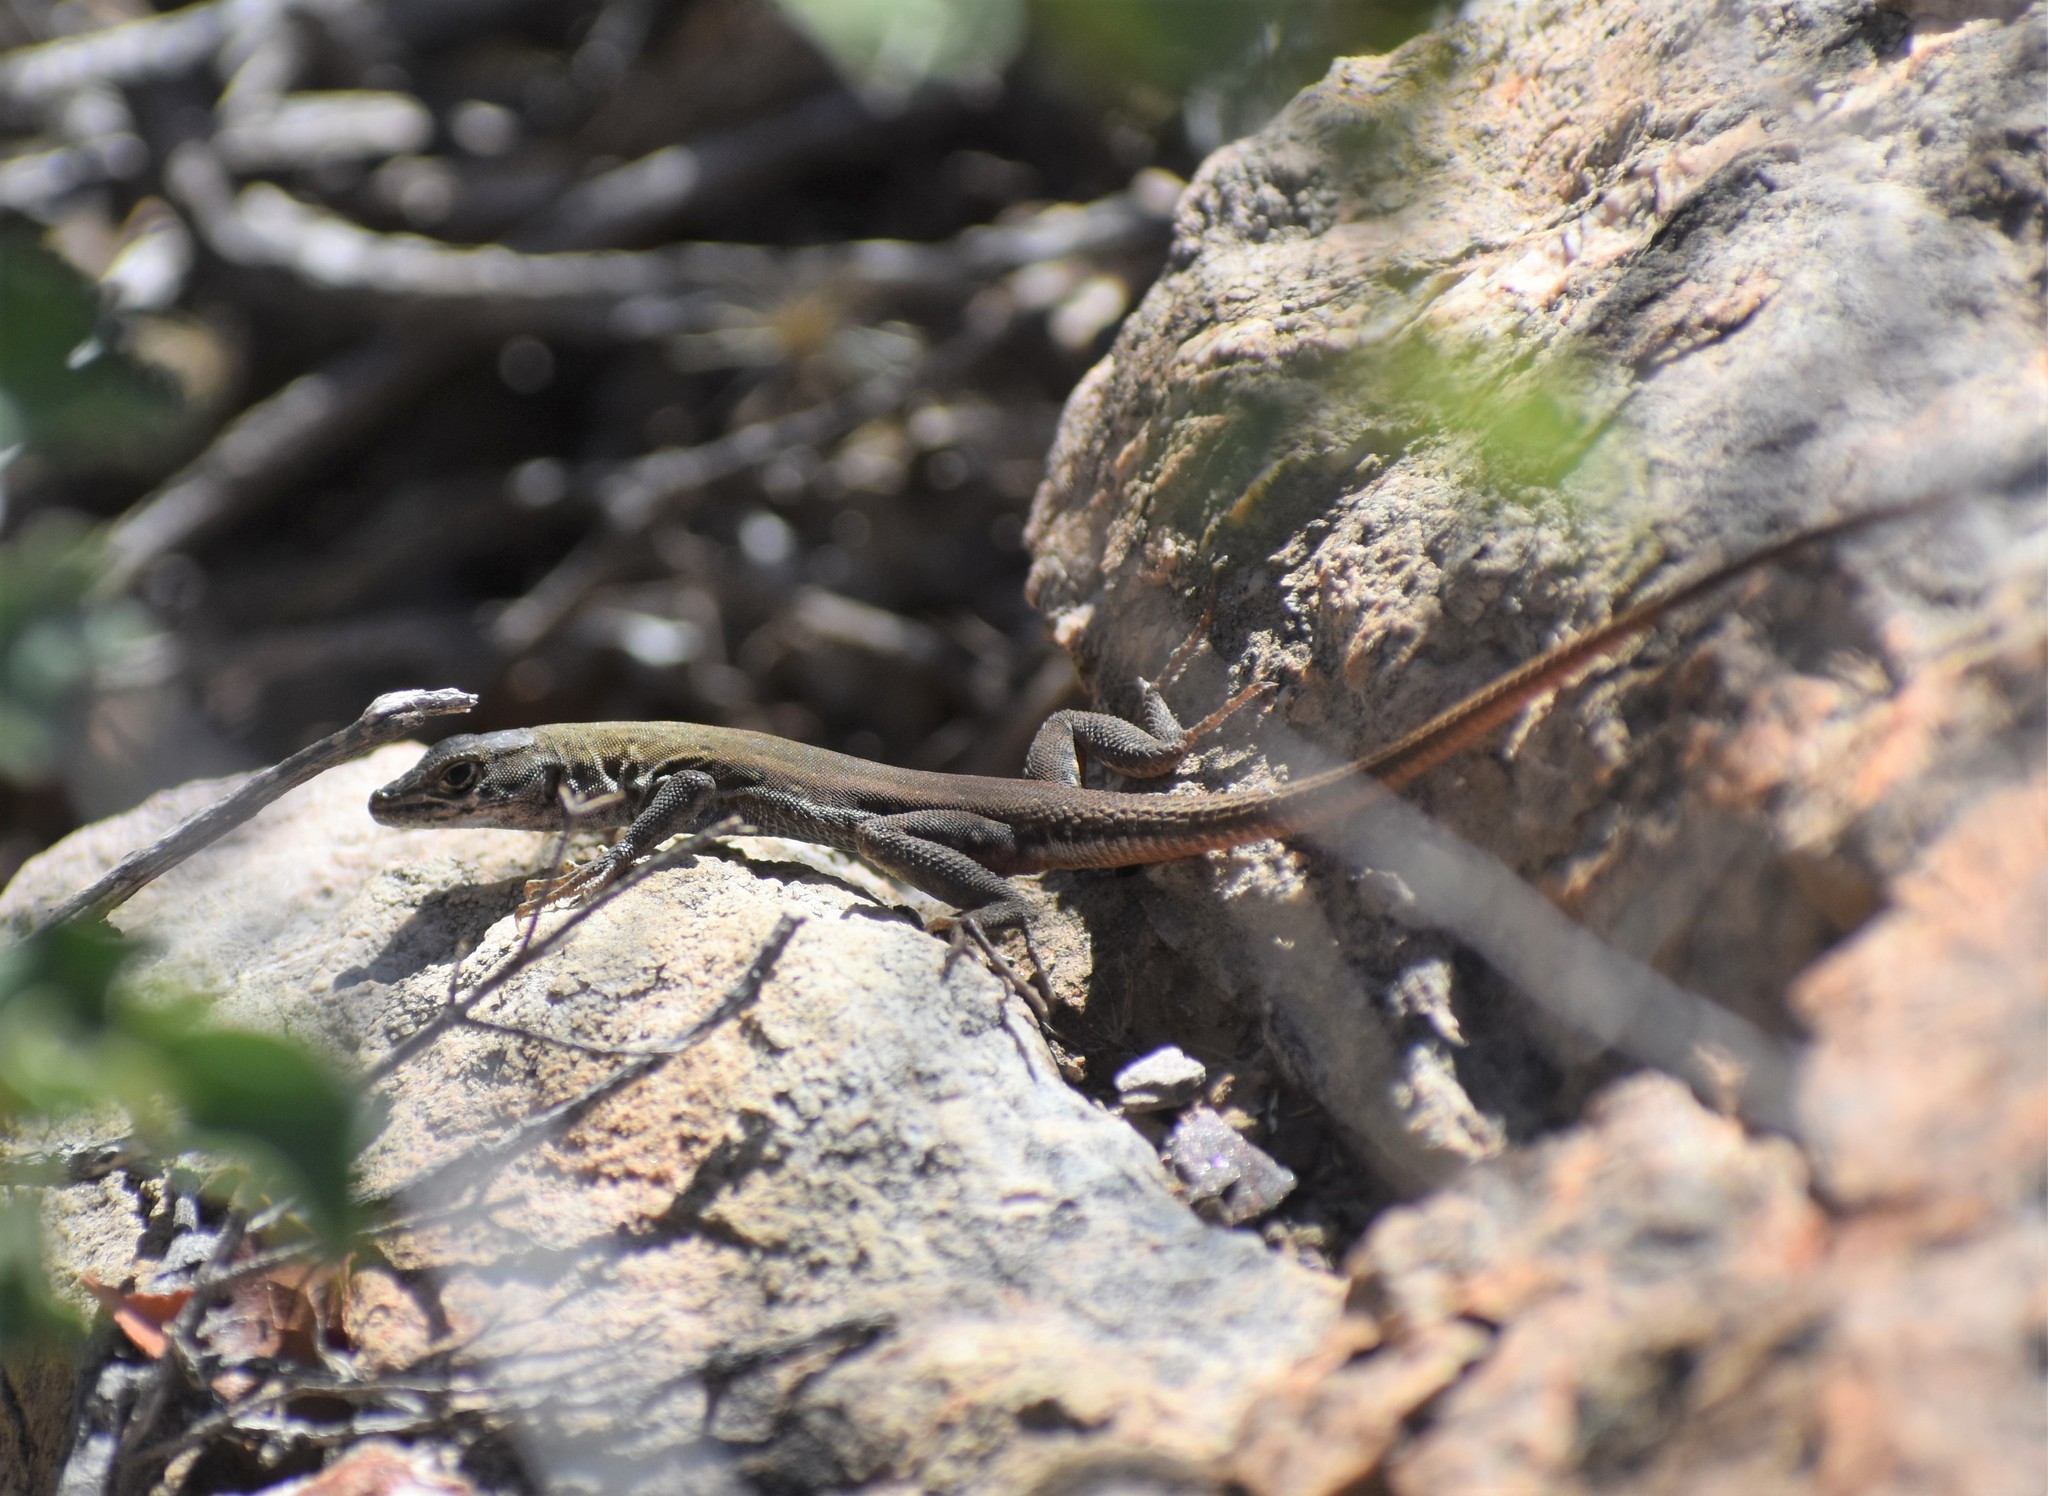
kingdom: Animalia
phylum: Chordata
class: Squamata
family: Lacertidae
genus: Pedioplanis
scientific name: Pedioplanis lineoocellata
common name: Spotted sand lizard
